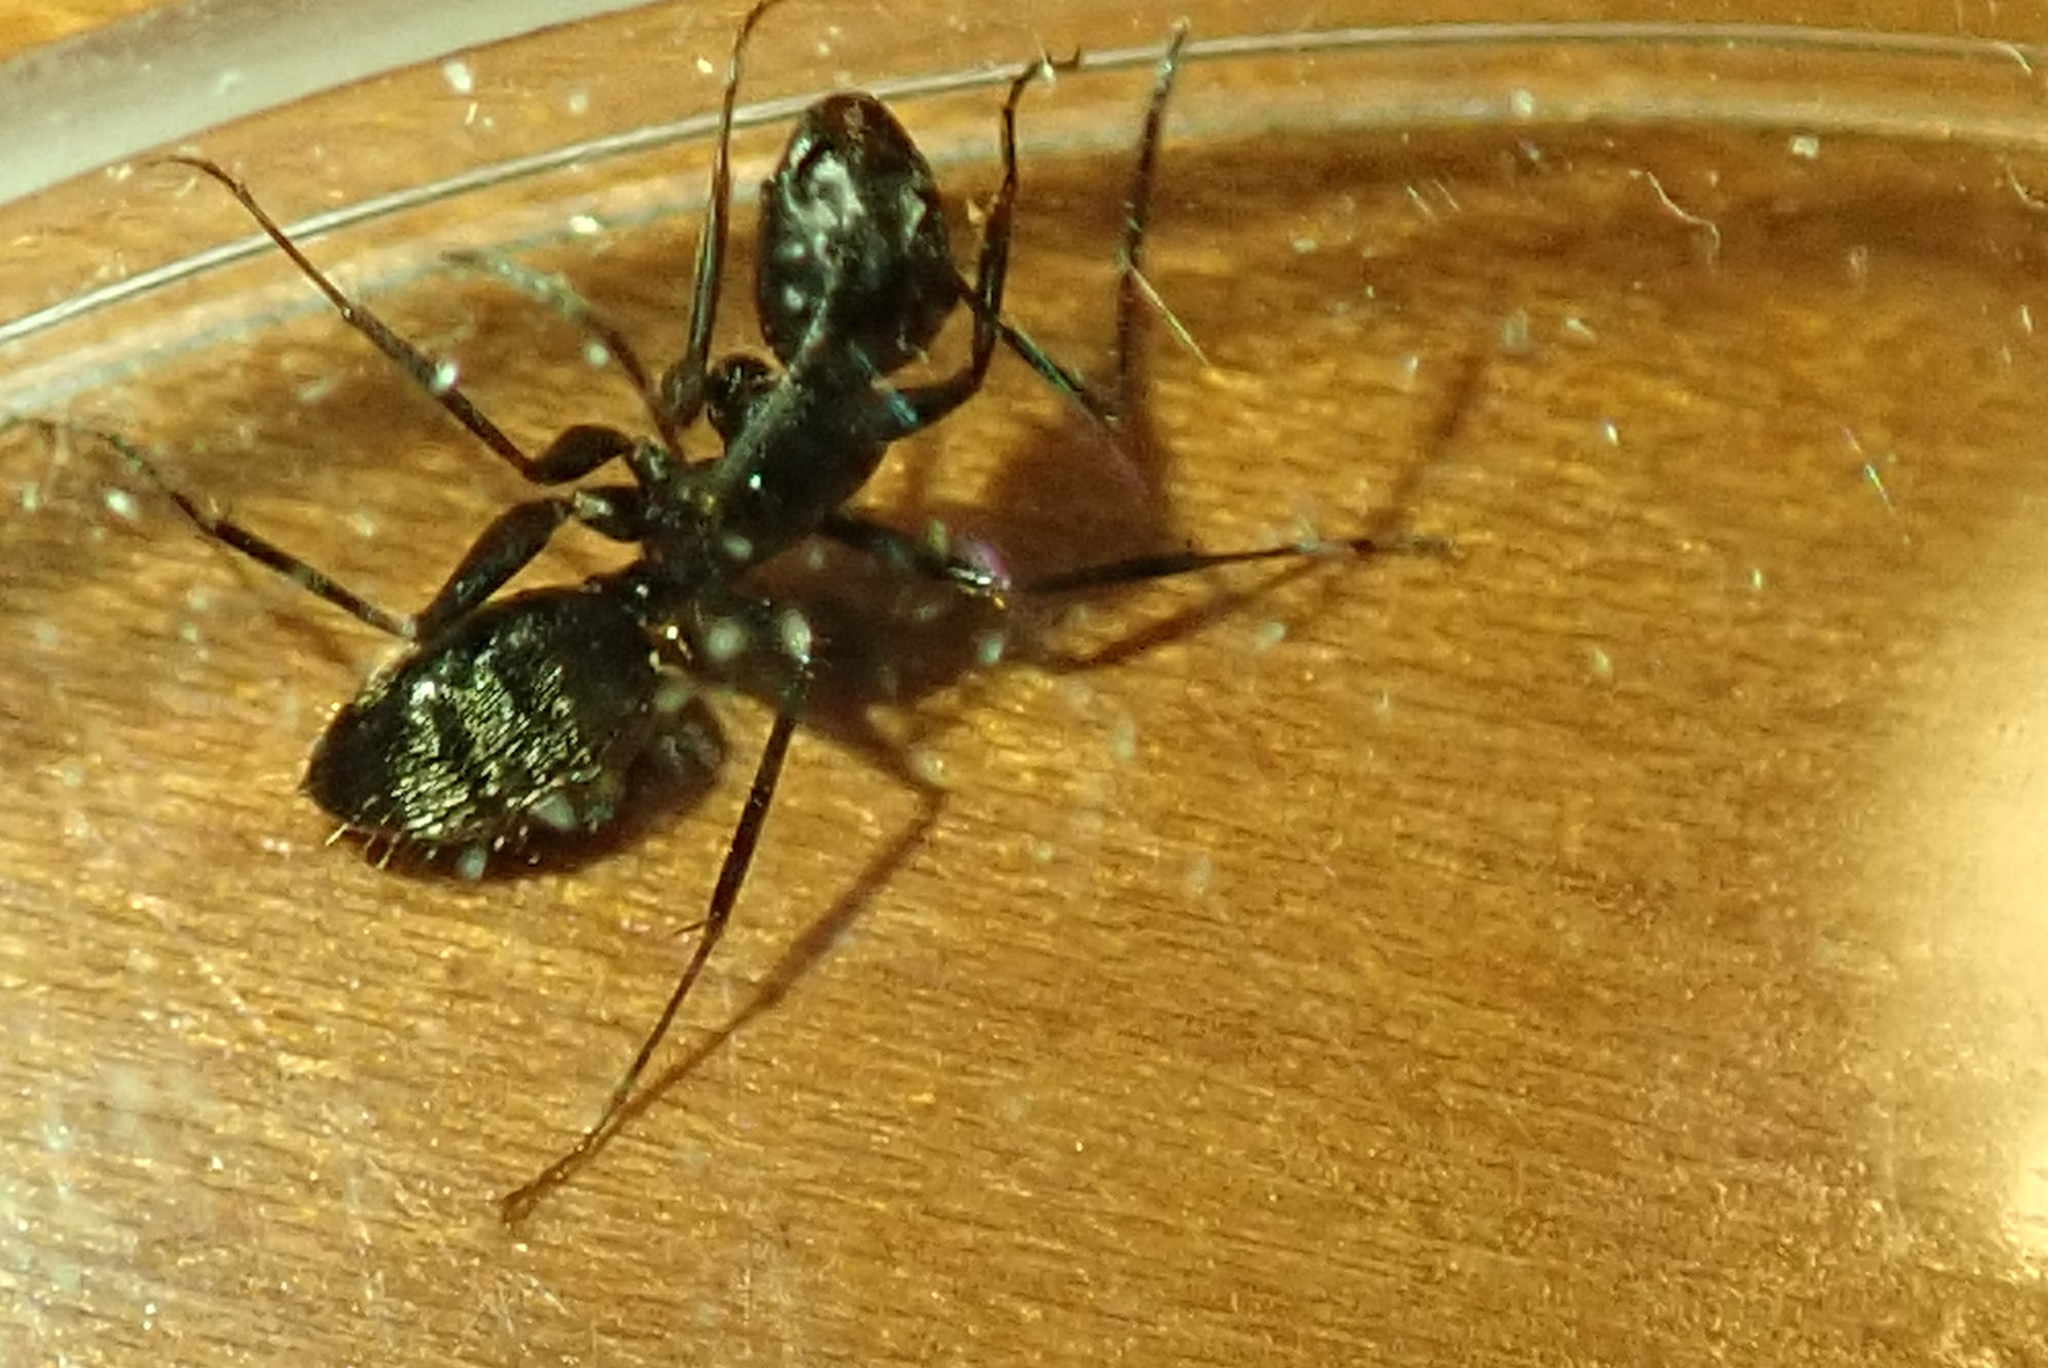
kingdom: Animalia
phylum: Arthropoda
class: Insecta
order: Hymenoptera
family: Formicidae
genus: Camponotus
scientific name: Camponotus pennsylvanicus
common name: Black carpenter ant
